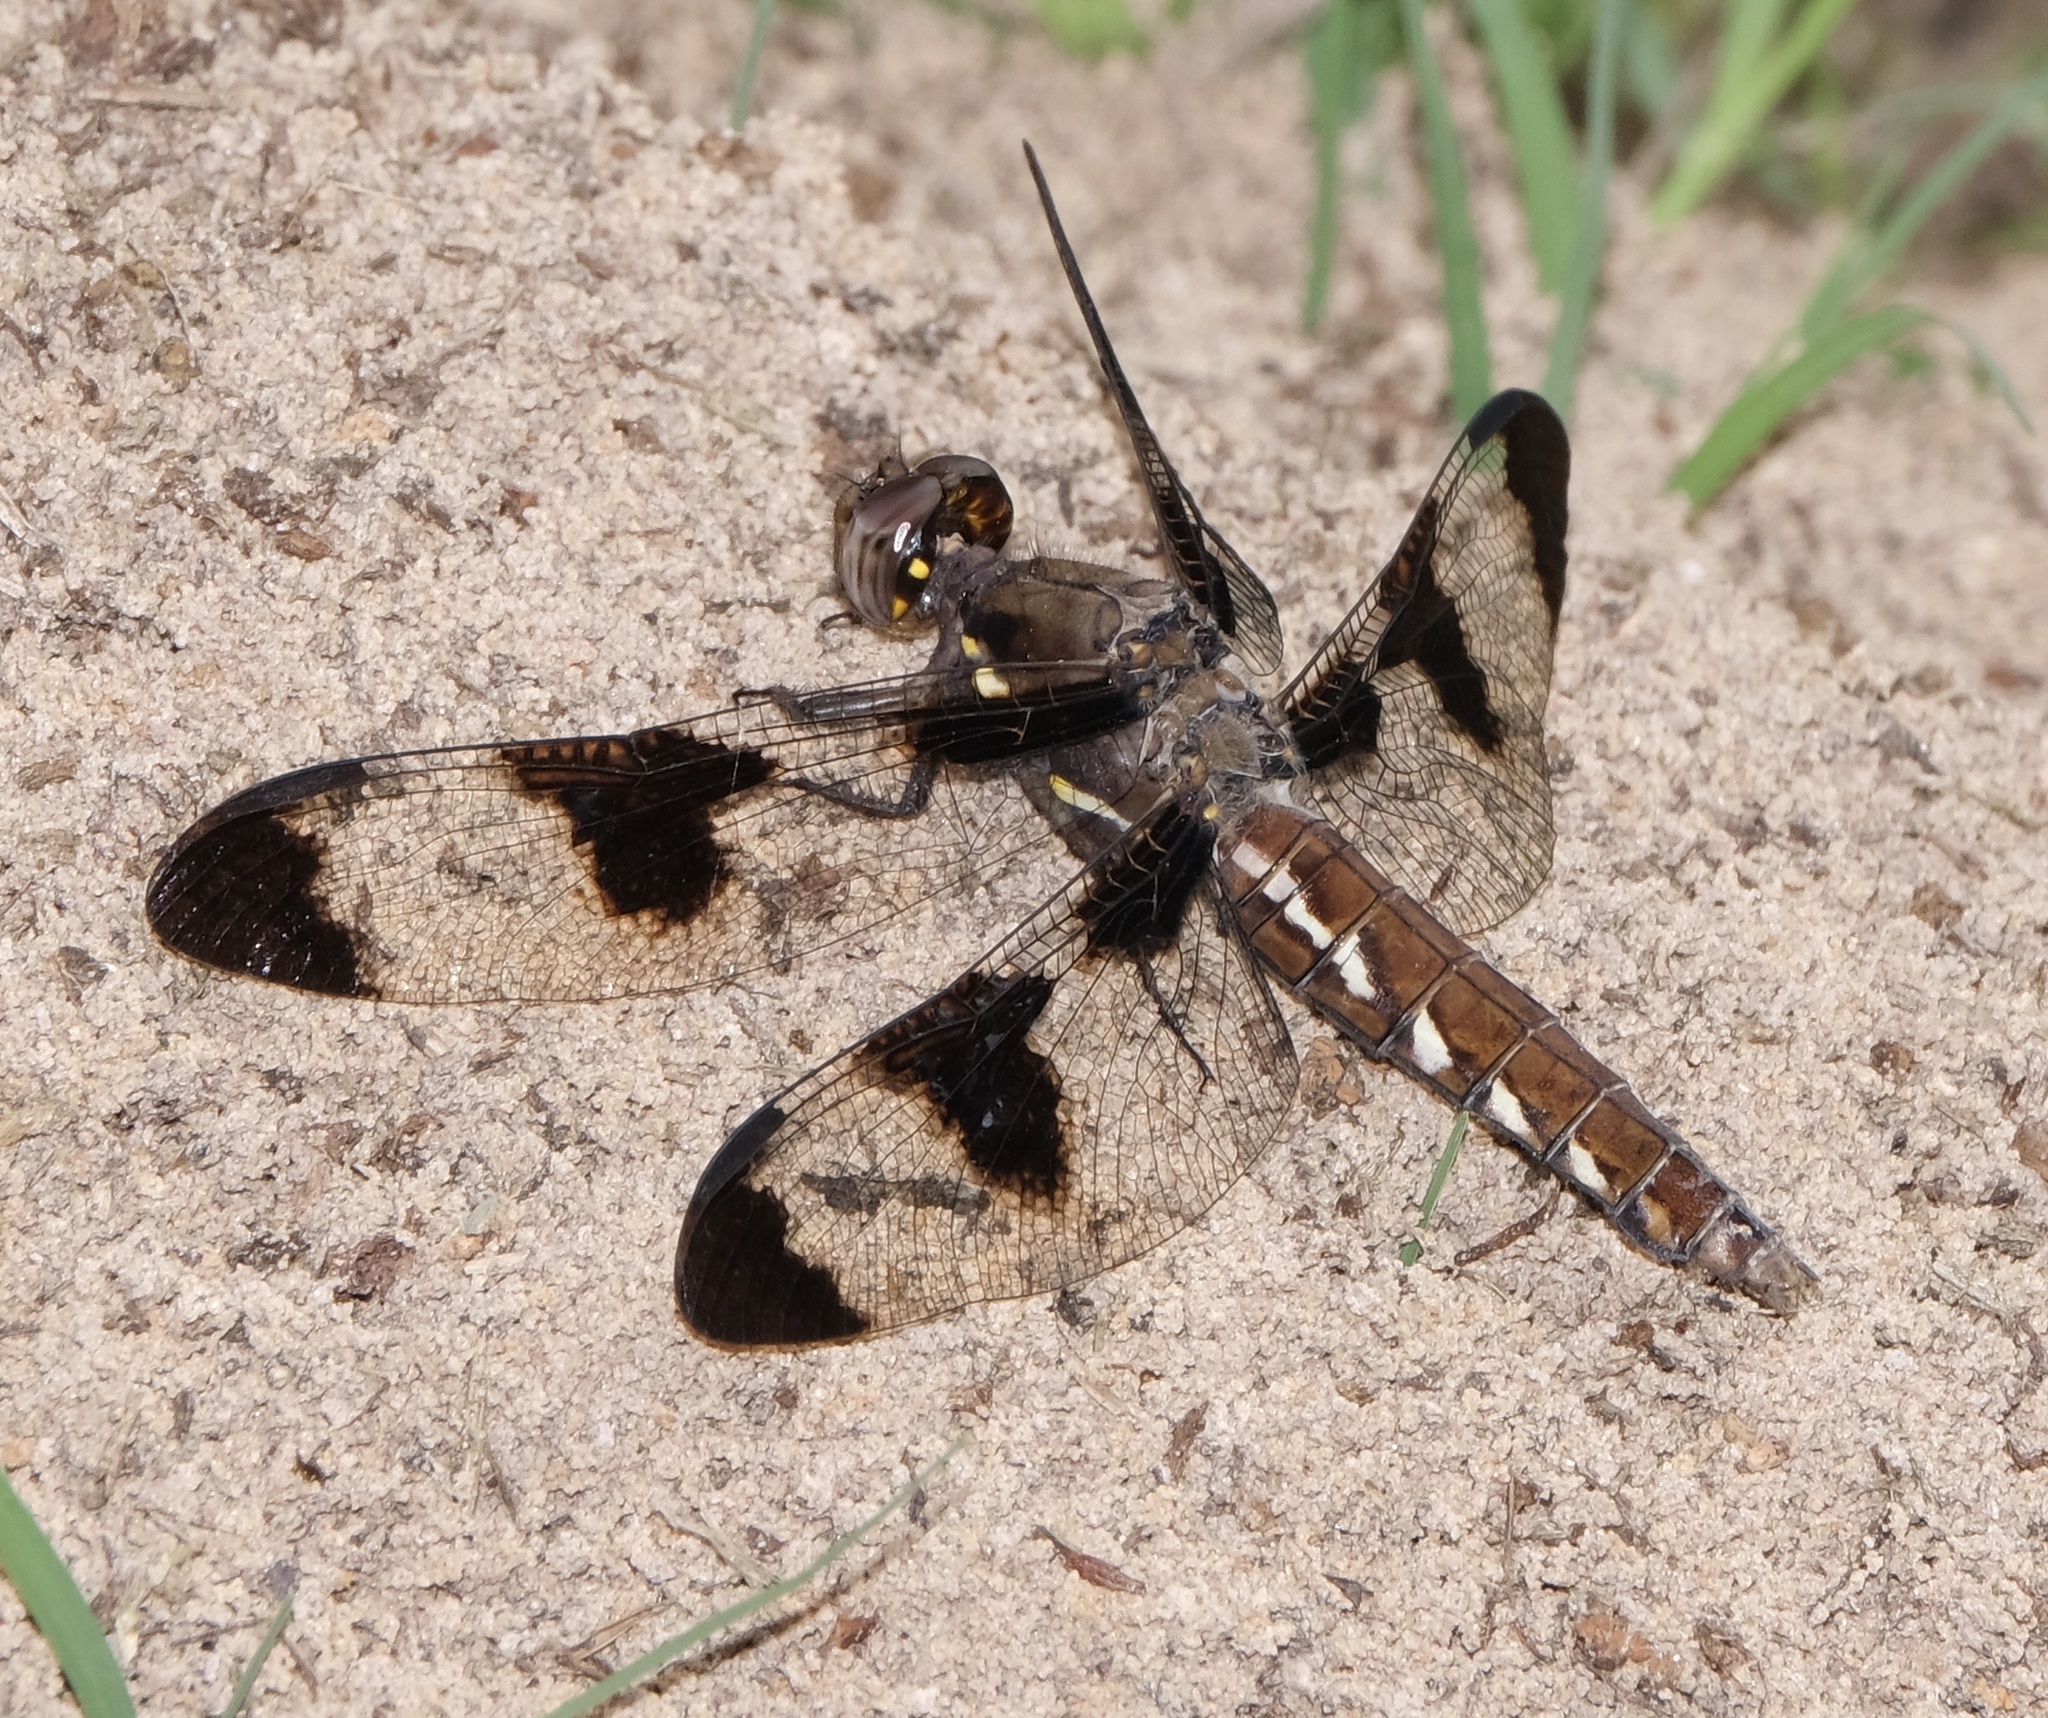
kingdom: Animalia
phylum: Arthropoda
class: Insecta
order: Odonata
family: Libellulidae
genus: Plathemis
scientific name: Plathemis lydia
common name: Common whitetail
